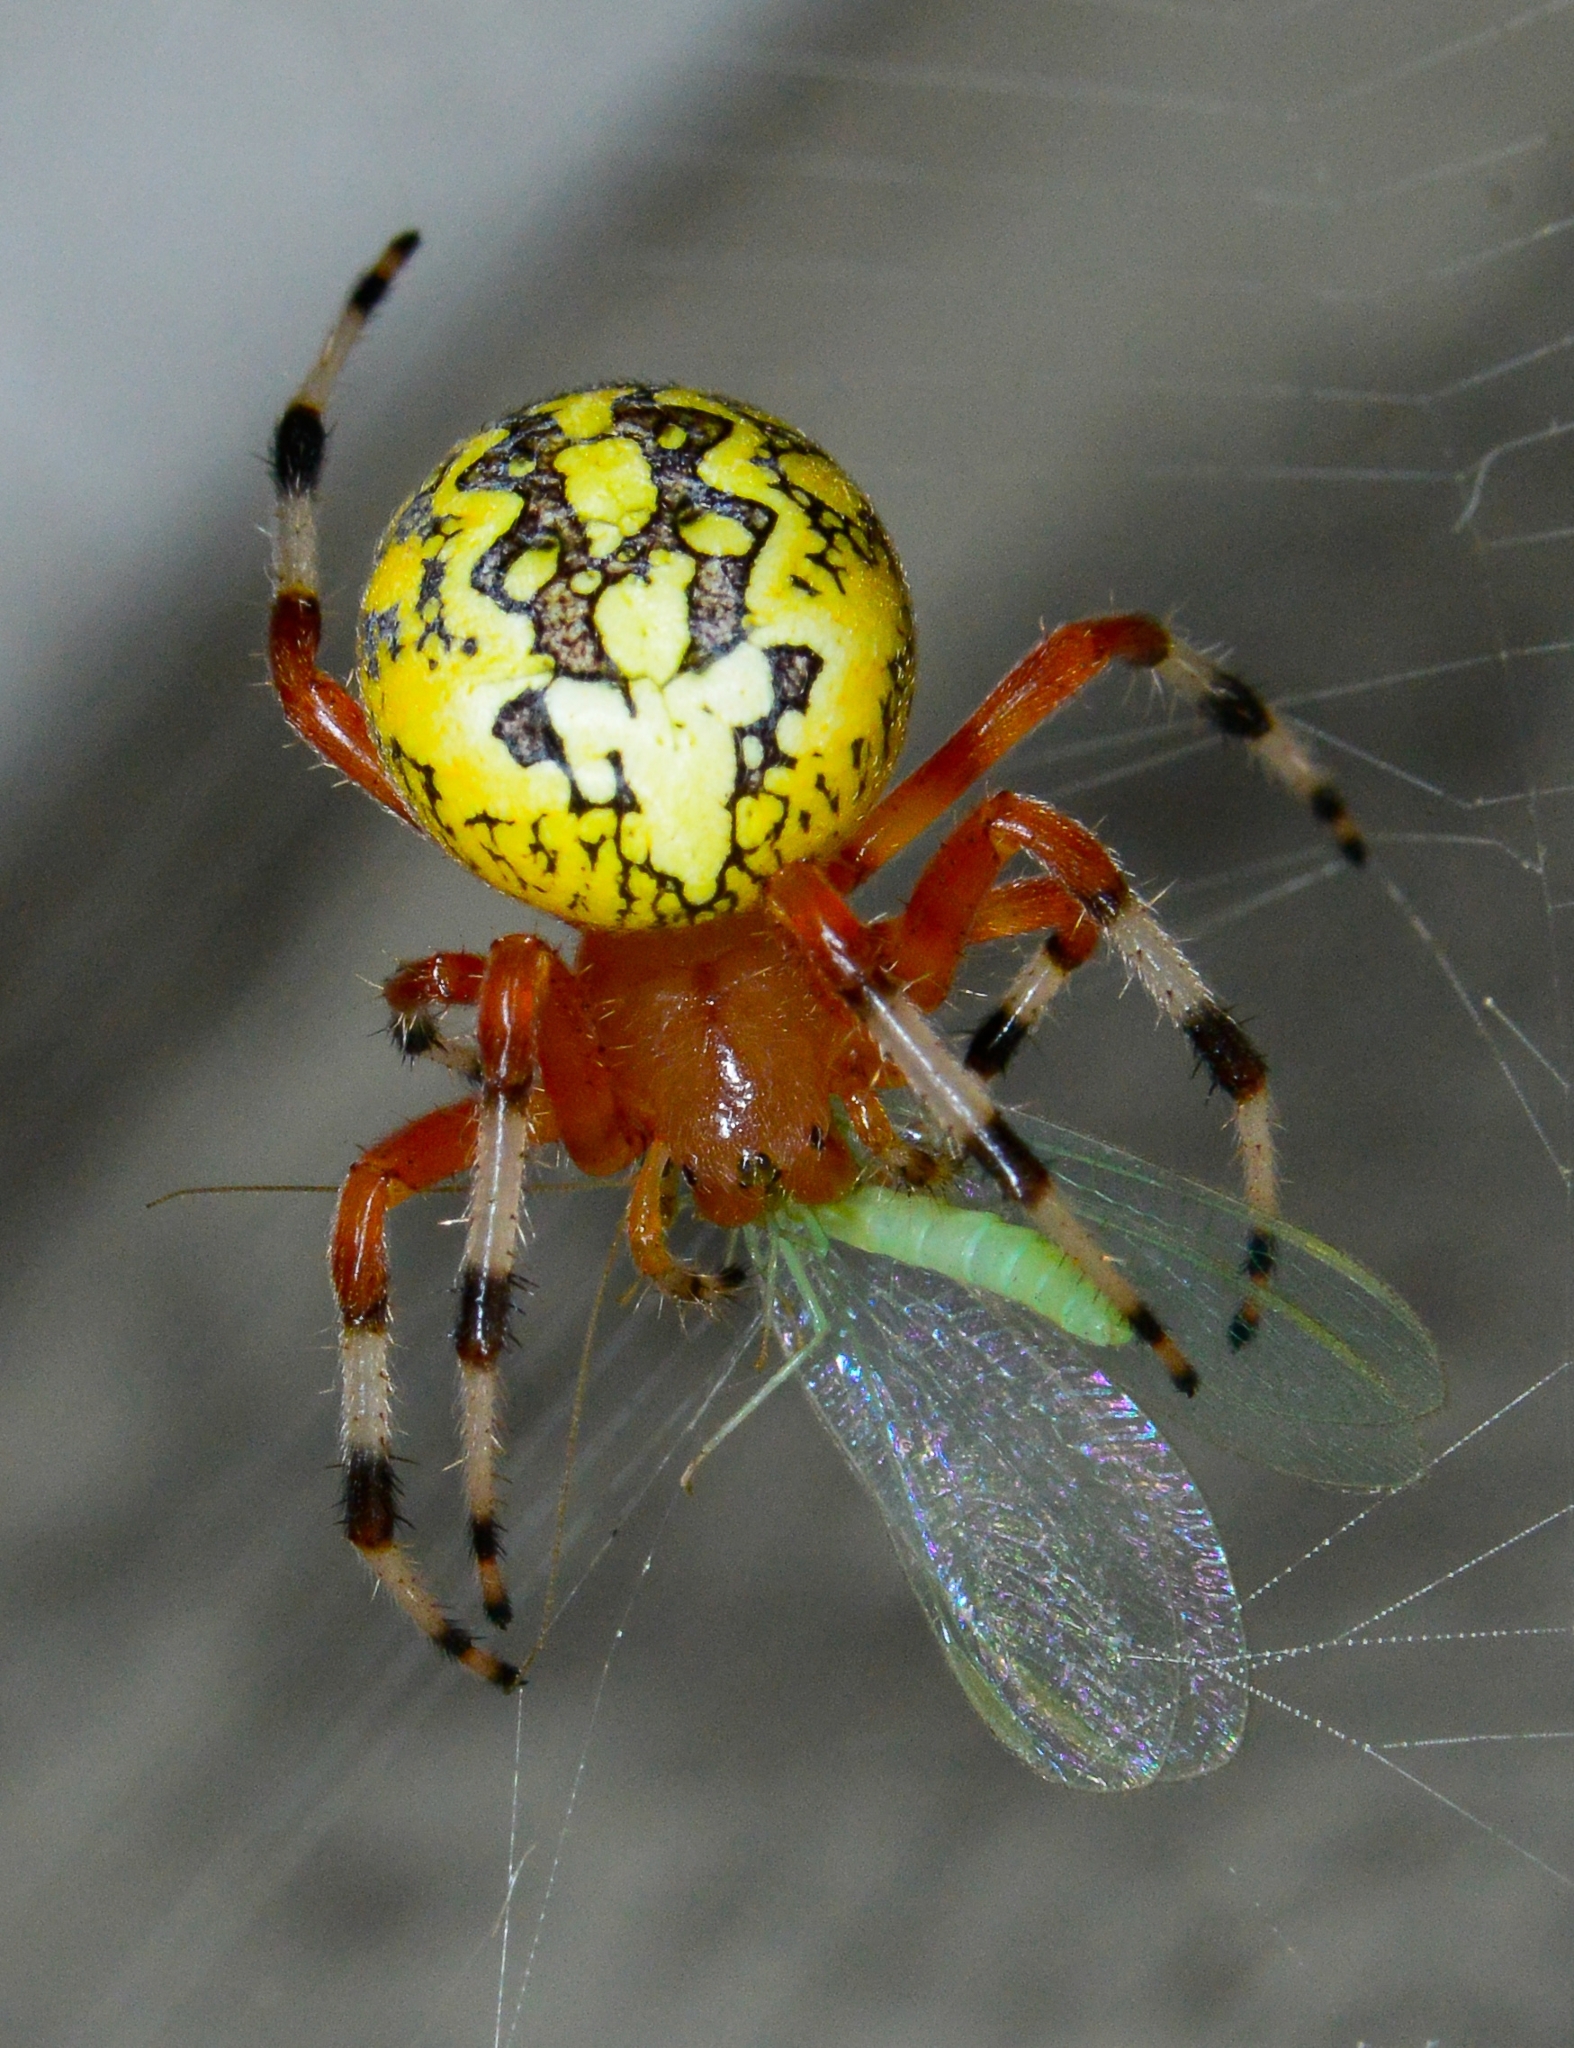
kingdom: Animalia
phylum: Arthropoda
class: Arachnida
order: Araneae
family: Araneidae
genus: Araneus
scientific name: Araneus marmoreus
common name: Marbled orbweaver
